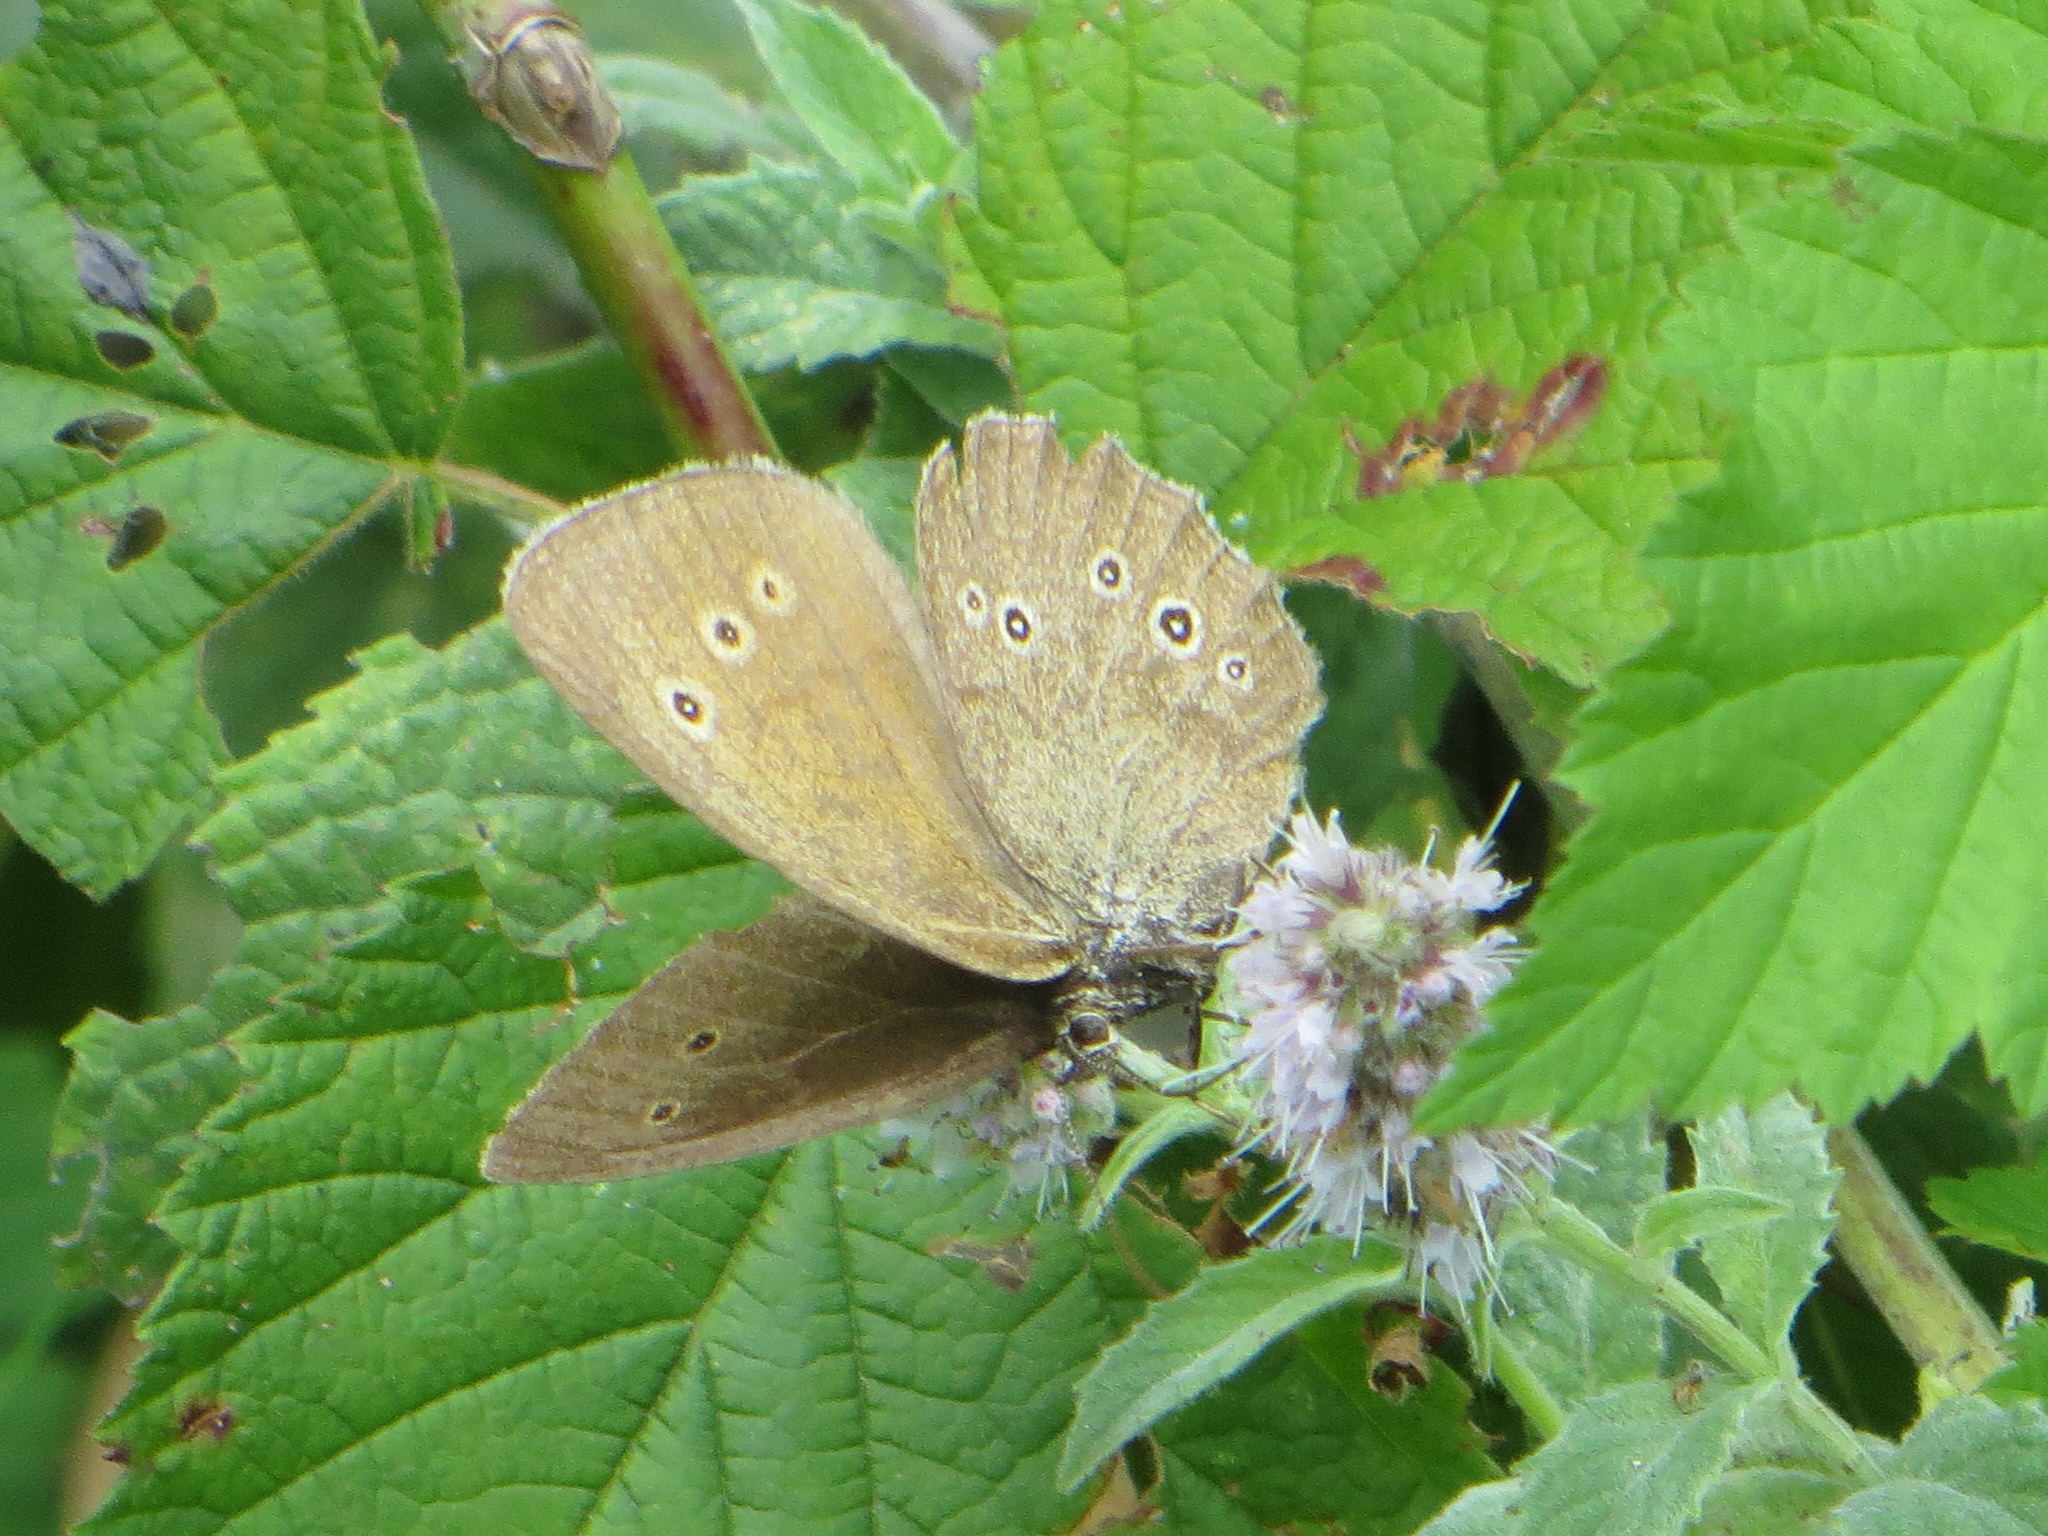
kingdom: Animalia
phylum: Arthropoda
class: Insecta
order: Lepidoptera
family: Nymphalidae
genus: Aphantopus
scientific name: Aphantopus hyperantus
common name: Ringlet
